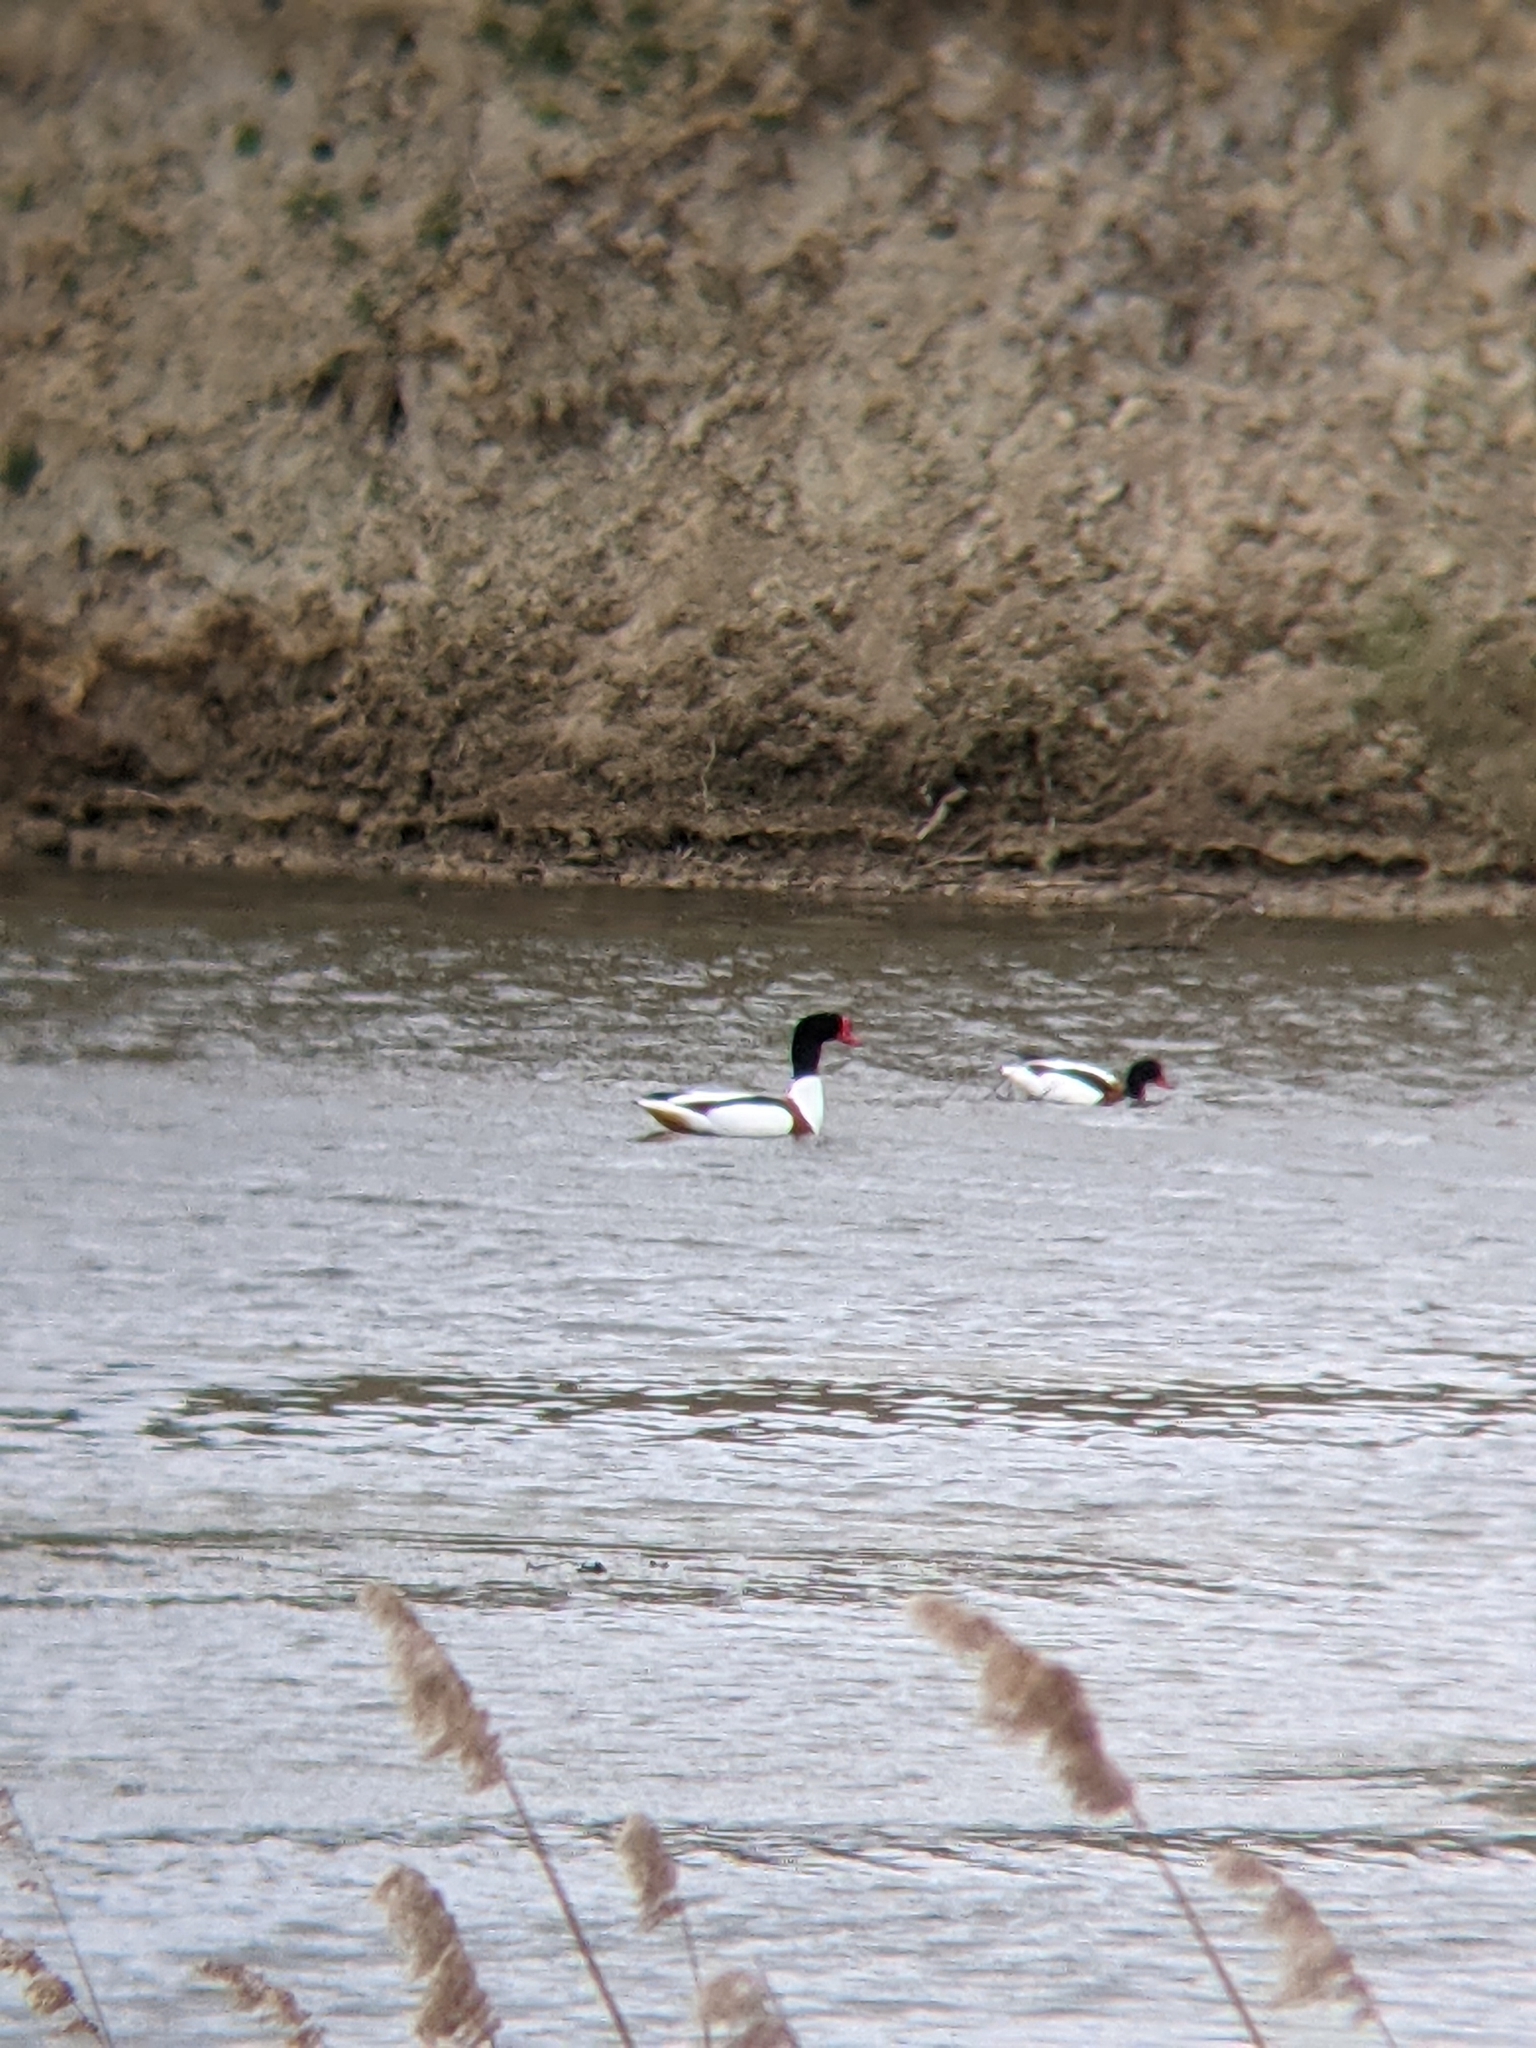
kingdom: Animalia
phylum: Chordata
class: Aves
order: Anseriformes
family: Anatidae
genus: Tadorna
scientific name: Tadorna tadorna
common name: Common shelduck
